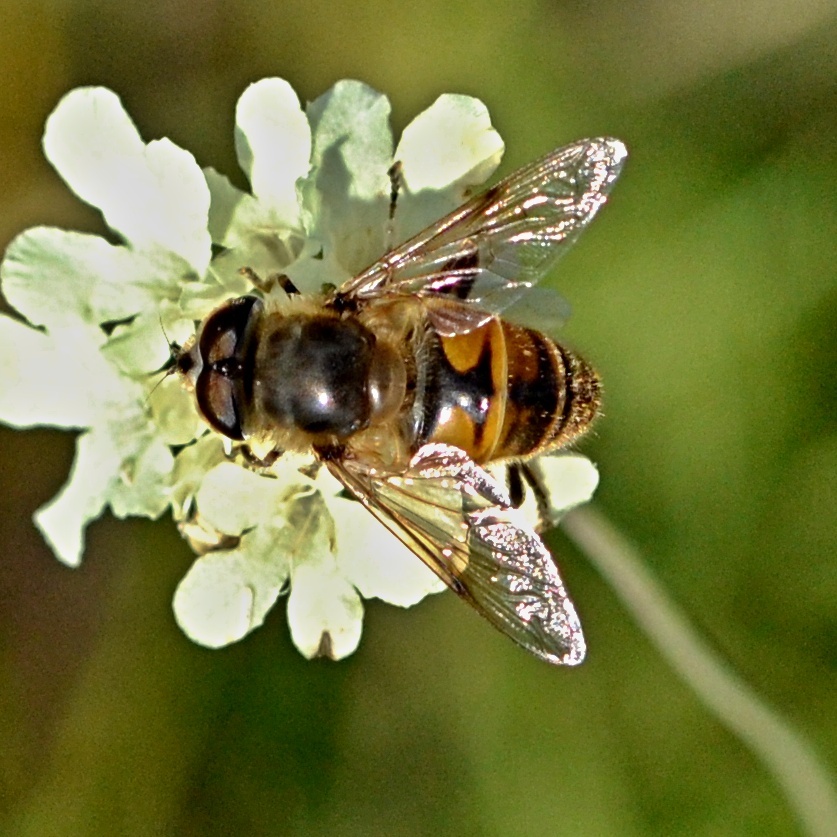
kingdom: Animalia
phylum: Arthropoda
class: Insecta
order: Diptera
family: Syrphidae
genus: Eristalis
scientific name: Eristalis tenax
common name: Drone fly
